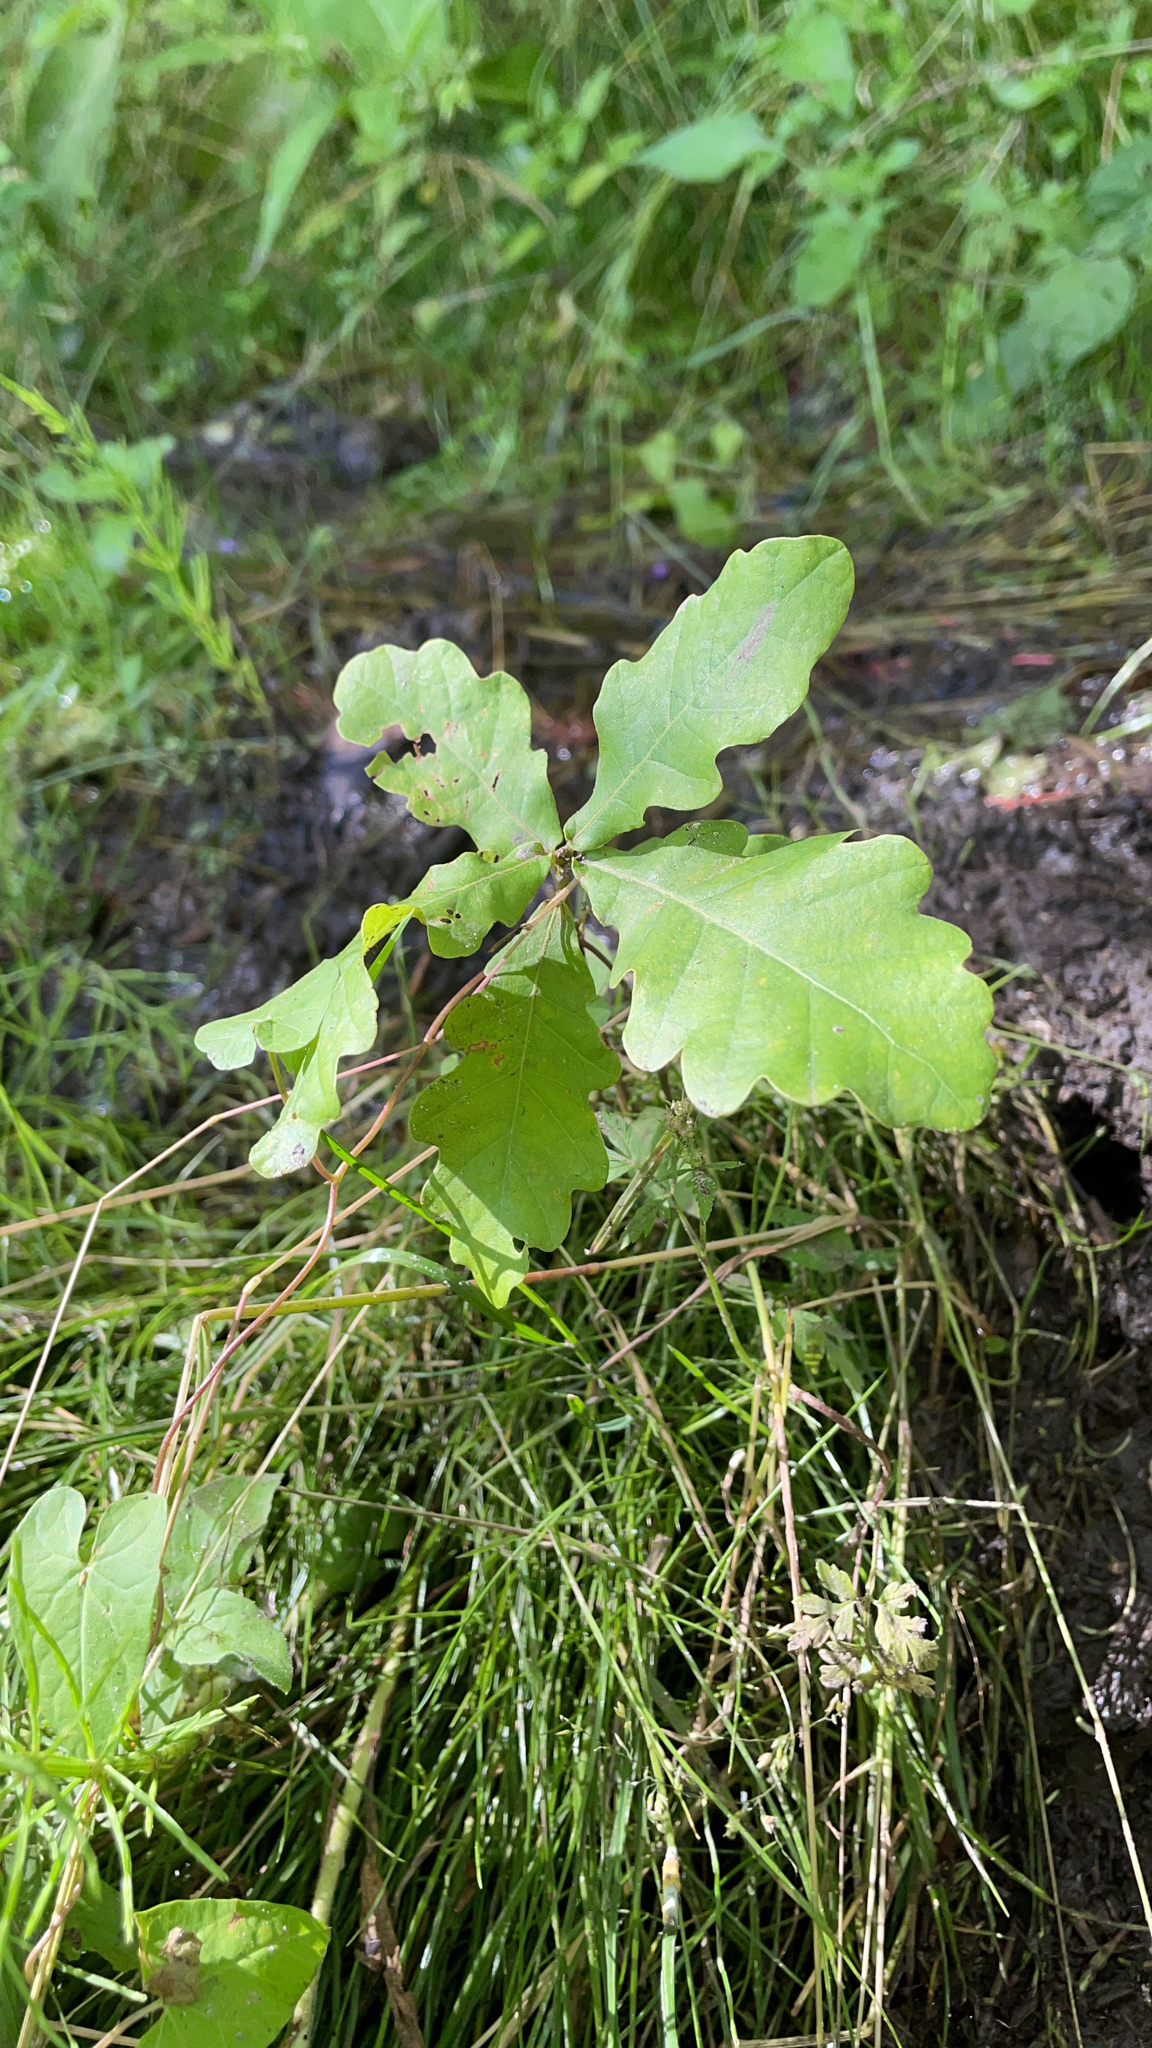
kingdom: Plantae
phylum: Tracheophyta
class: Magnoliopsida
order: Fagales
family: Fagaceae
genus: Quercus
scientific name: Quercus robur
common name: Pedunculate oak
